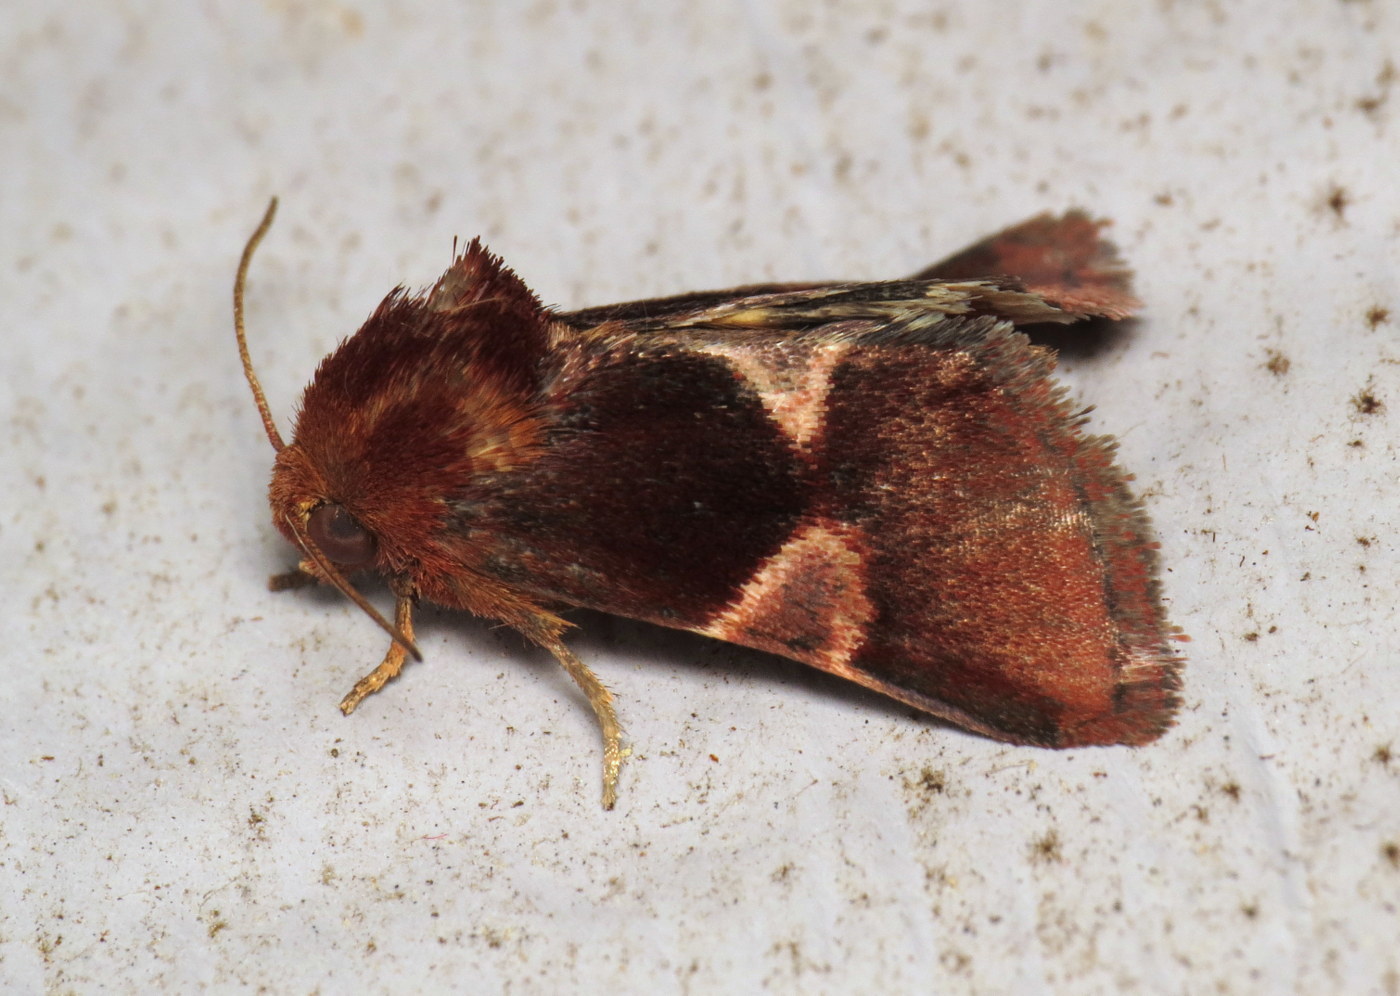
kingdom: Animalia
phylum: Arthropoda
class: Insecta
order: Lepidoptera
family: Noctuidae
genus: Schinia
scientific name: Schinia arcigera
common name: Arcigera flower moth
